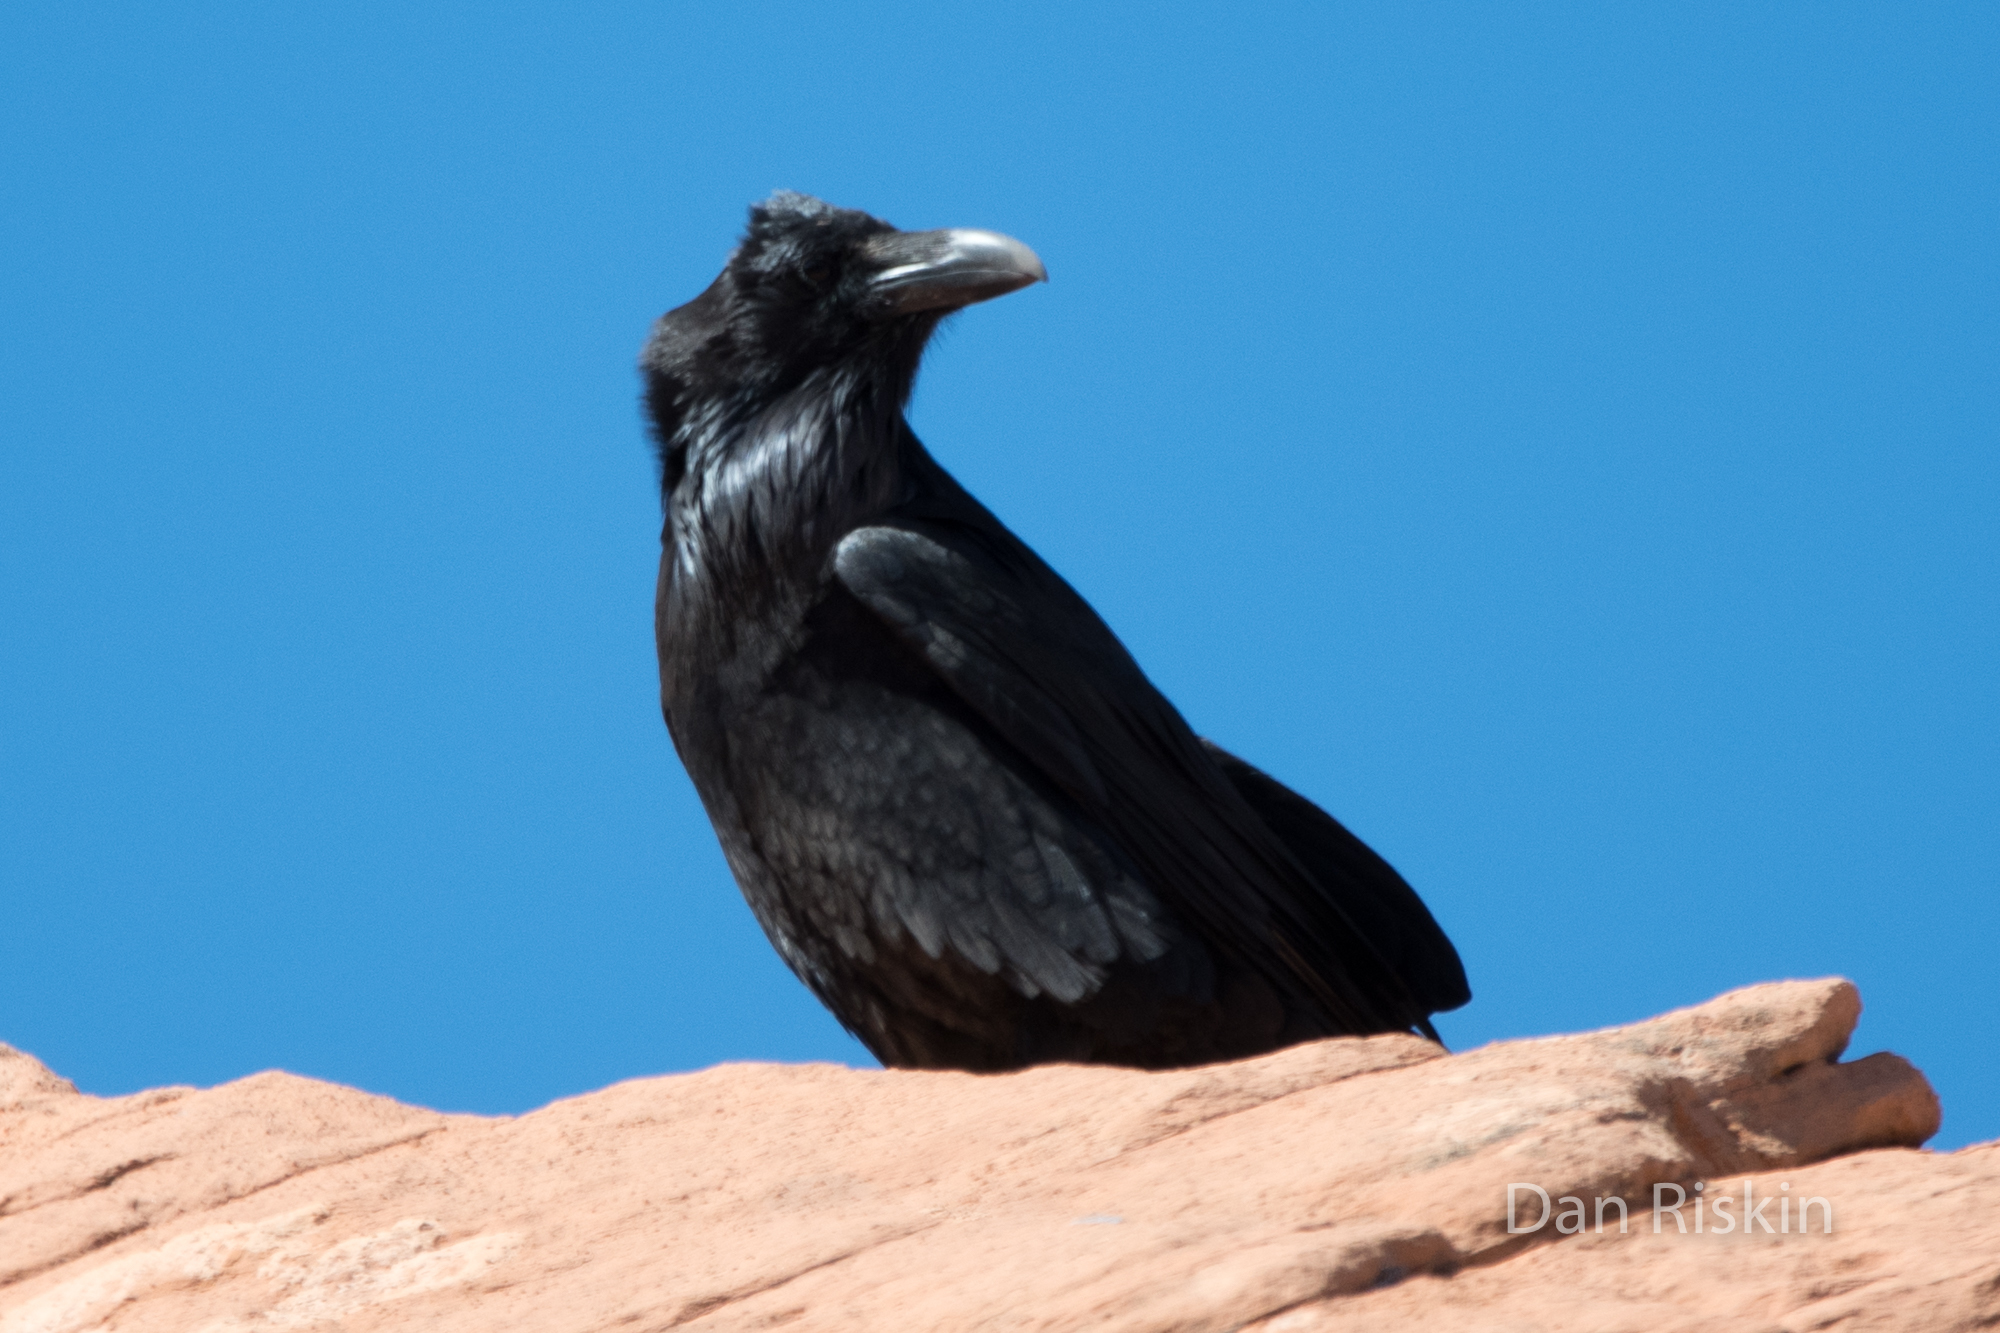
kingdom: Animalia
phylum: Chordata
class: Aves
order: Passeriformes
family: Corvidae
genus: Corvus
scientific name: Corvus corax
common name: Common raven
